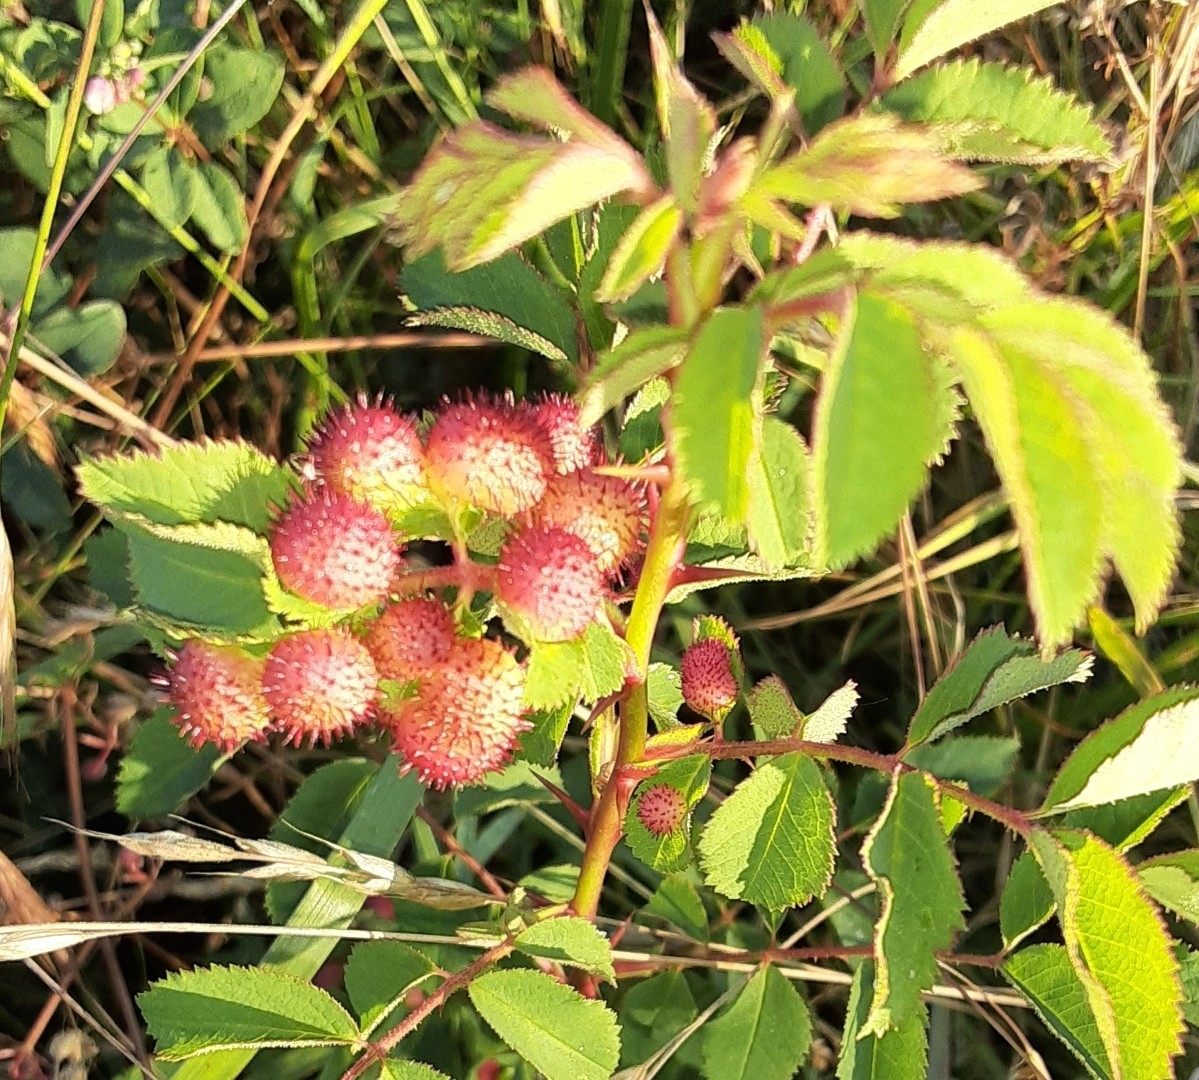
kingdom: Animalia
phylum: Arthropoda
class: Insecta
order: Hymenoptera
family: Cynipidae
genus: Diplolepis
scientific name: Diplolepis polita
